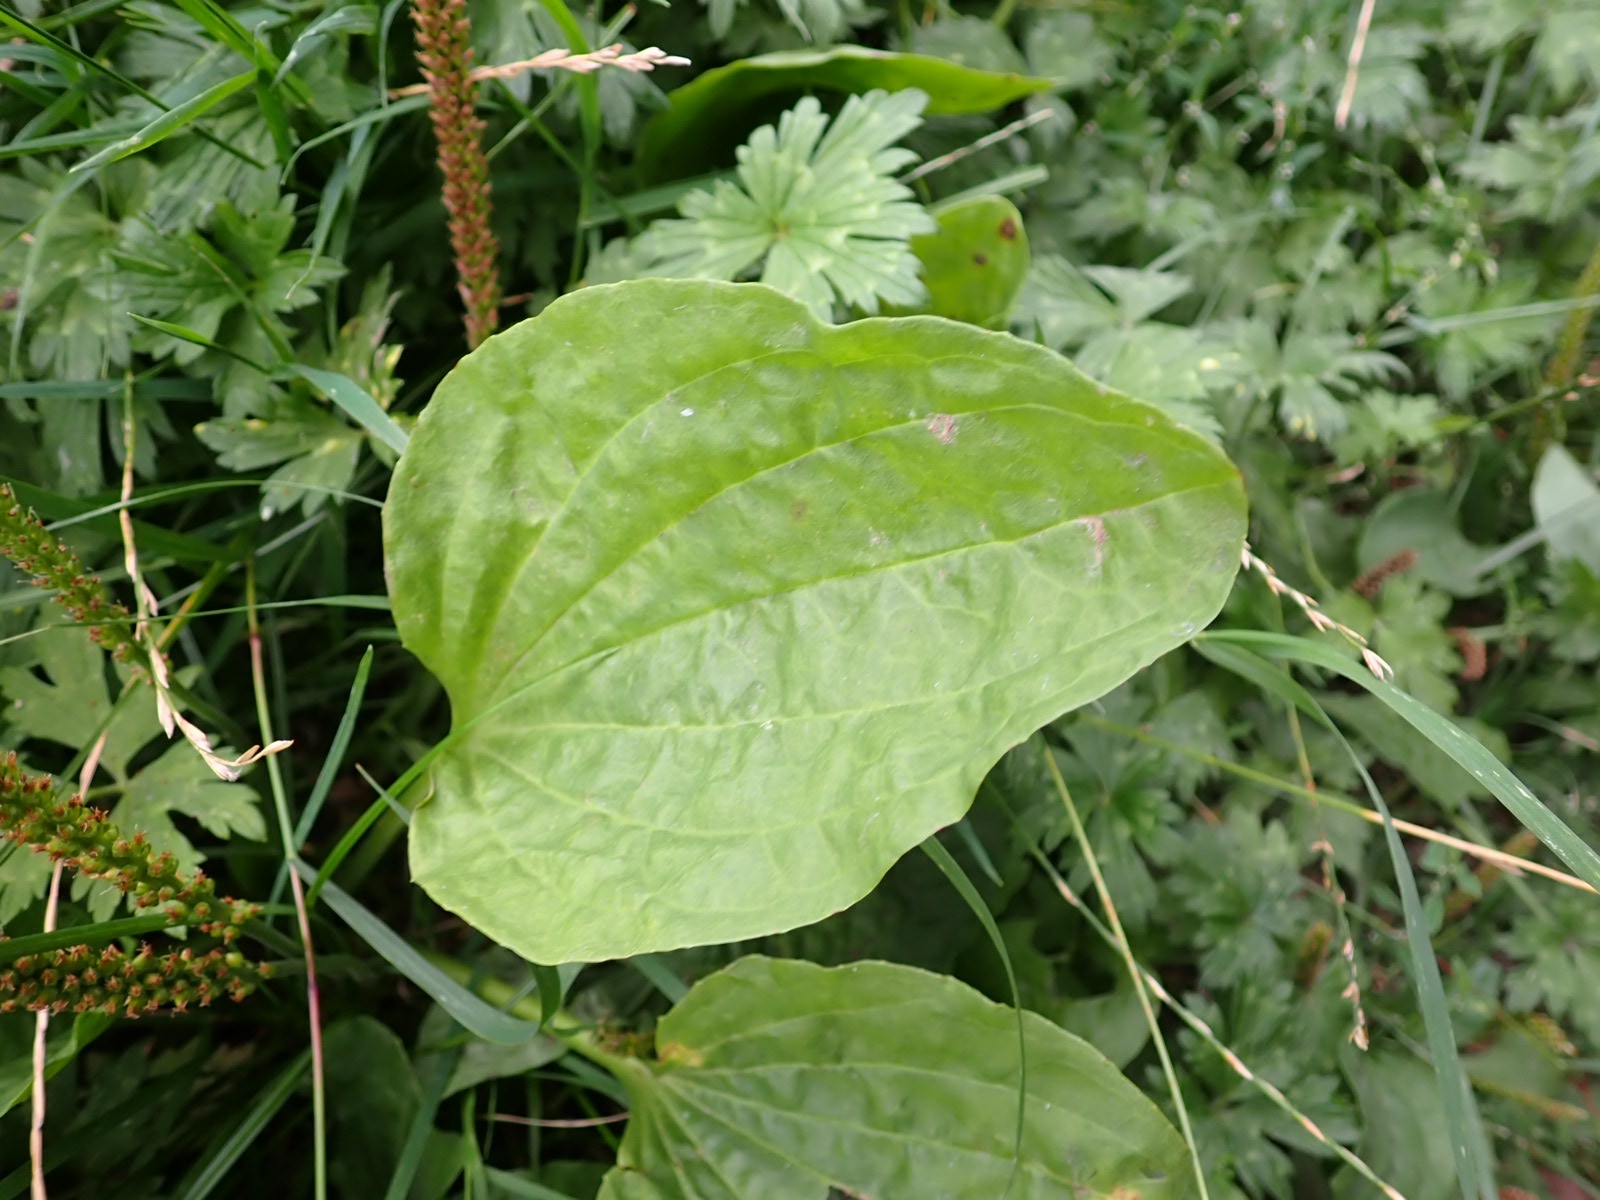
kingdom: Plantae
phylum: Tracheophyta
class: Magnoliopsida
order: Lamiales
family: Plantaginaceae
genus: Plantago
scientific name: Plantago major
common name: Common plantain
